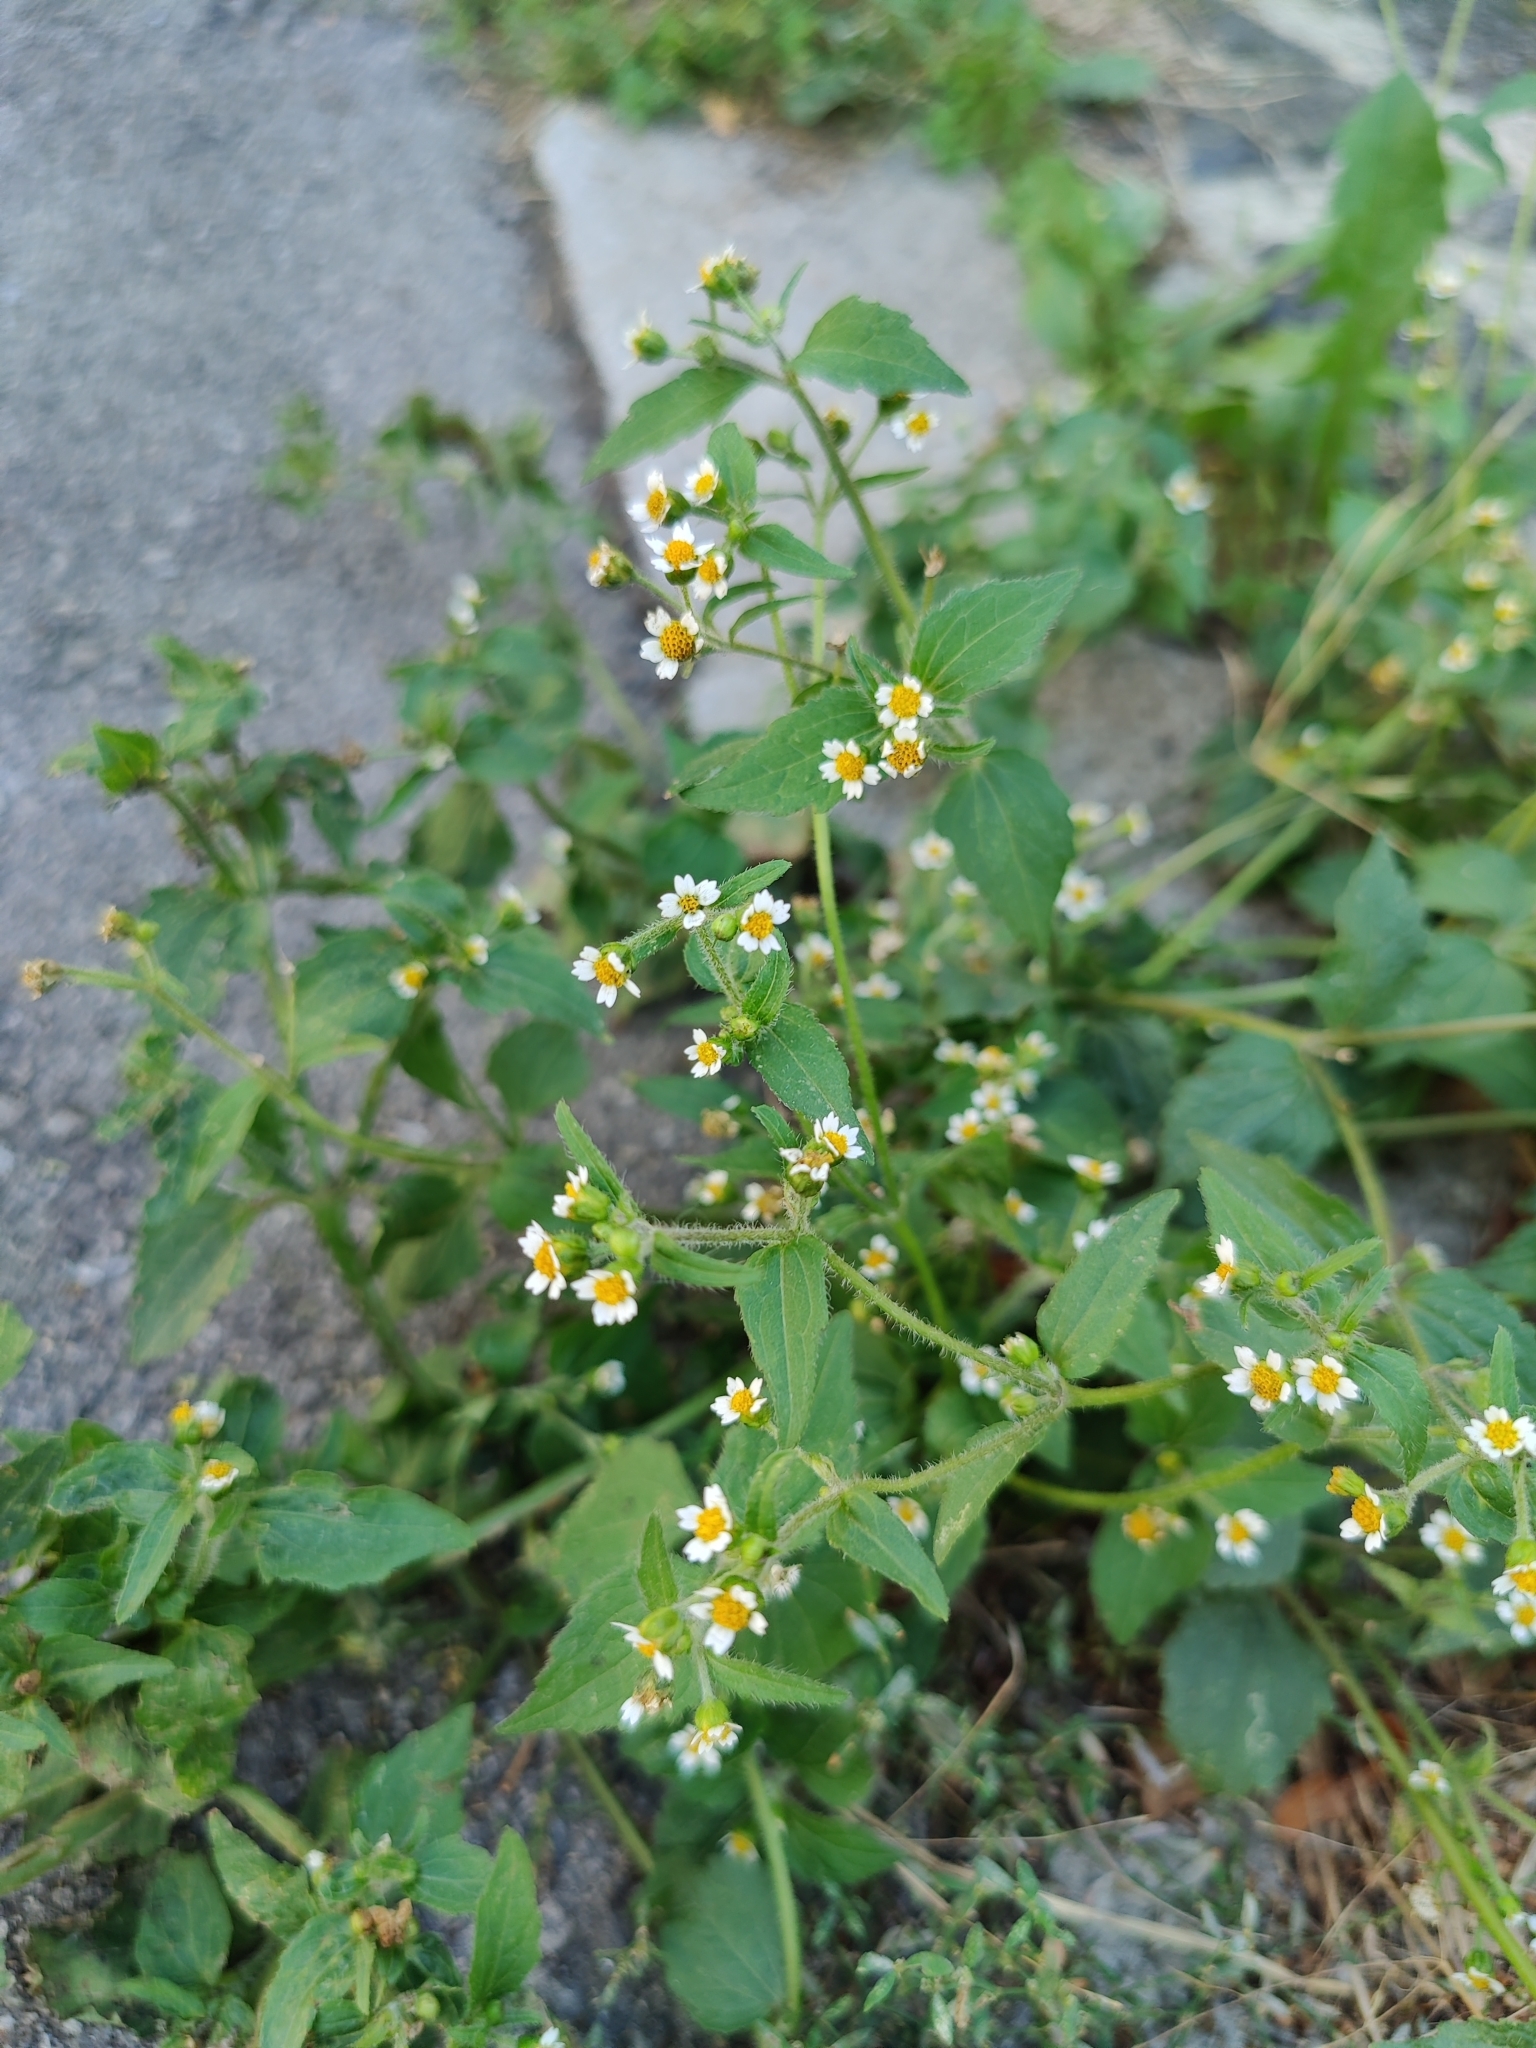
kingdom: Plantae
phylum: Tracheophyta
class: Magnoliopsida
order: Asterales
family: Asteraceae
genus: Galinsoga
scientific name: Galinsoga quadriradiata
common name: Shaggy soldier
